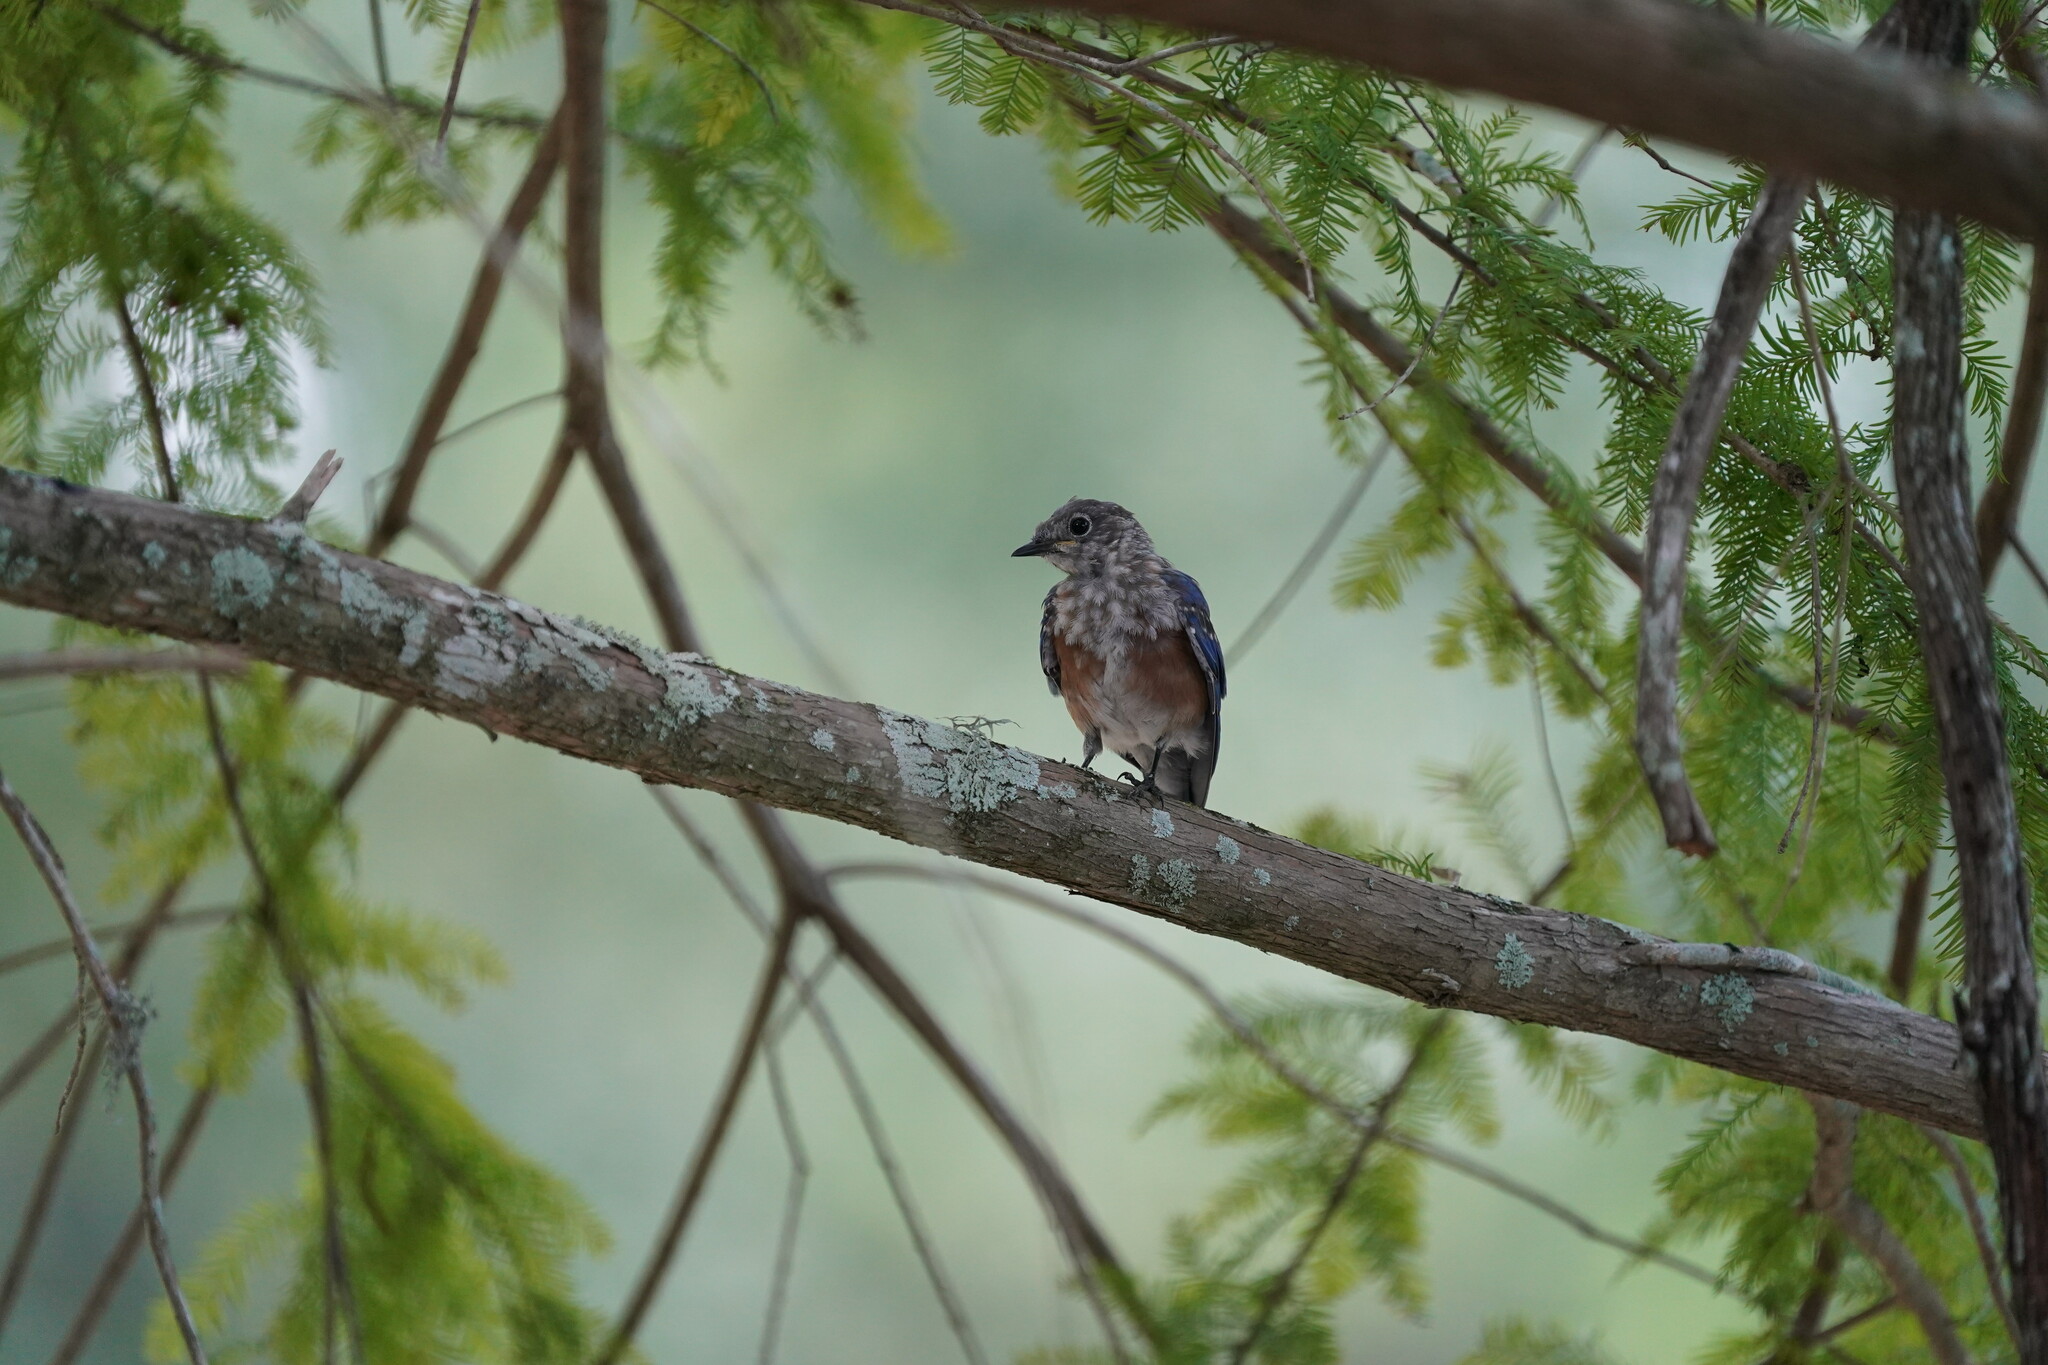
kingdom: Animalia
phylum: Chordata
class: Aves
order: Passeriformes
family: Turdidae
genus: Sialia
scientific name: Sialia sialis
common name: Eastern bluebird
